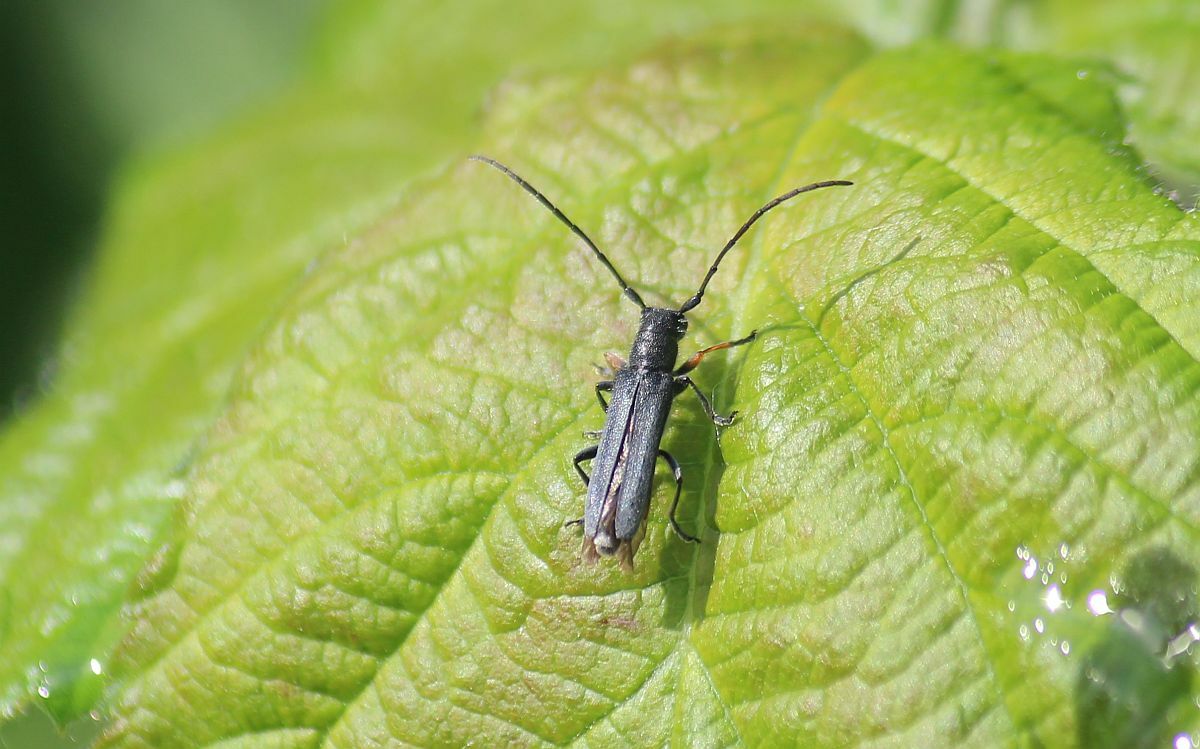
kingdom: Animalia
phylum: Arthropoda
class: Insecta
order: Coleoptera
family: Cerambycidae
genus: Phytoecia
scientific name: Phytoecia cylindrica
